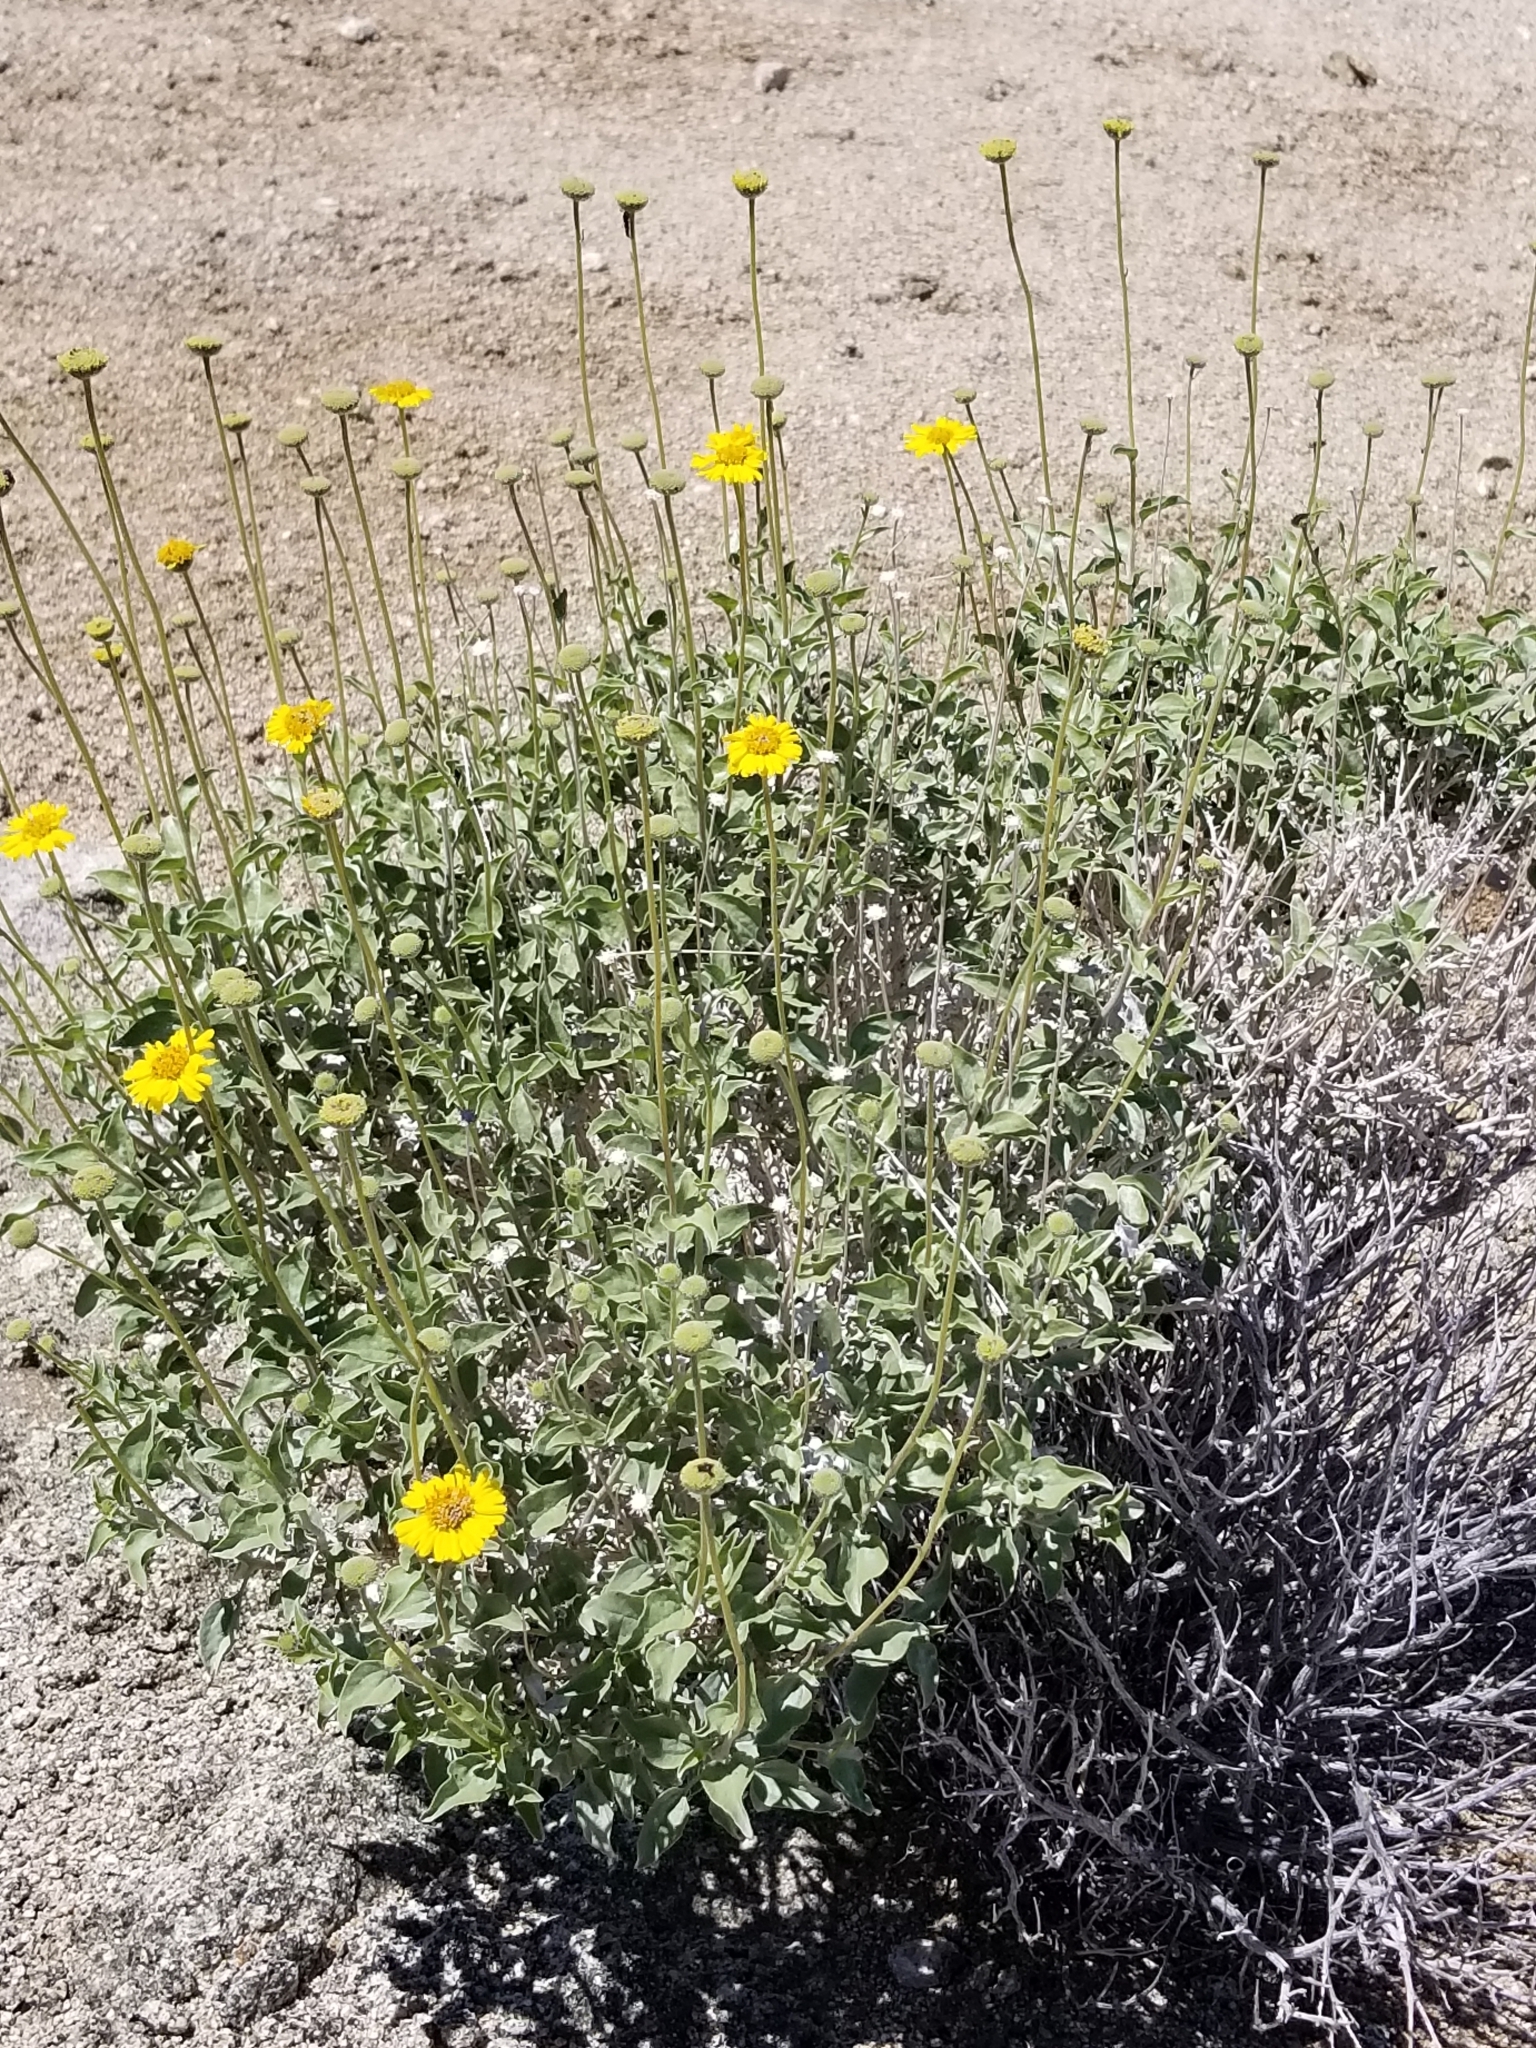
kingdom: Plantae
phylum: Tracheophyta
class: Magnoliopsida
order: Asterales
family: Asteraceae
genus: Encelia
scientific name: Encelia actoni
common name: Acton encelia
